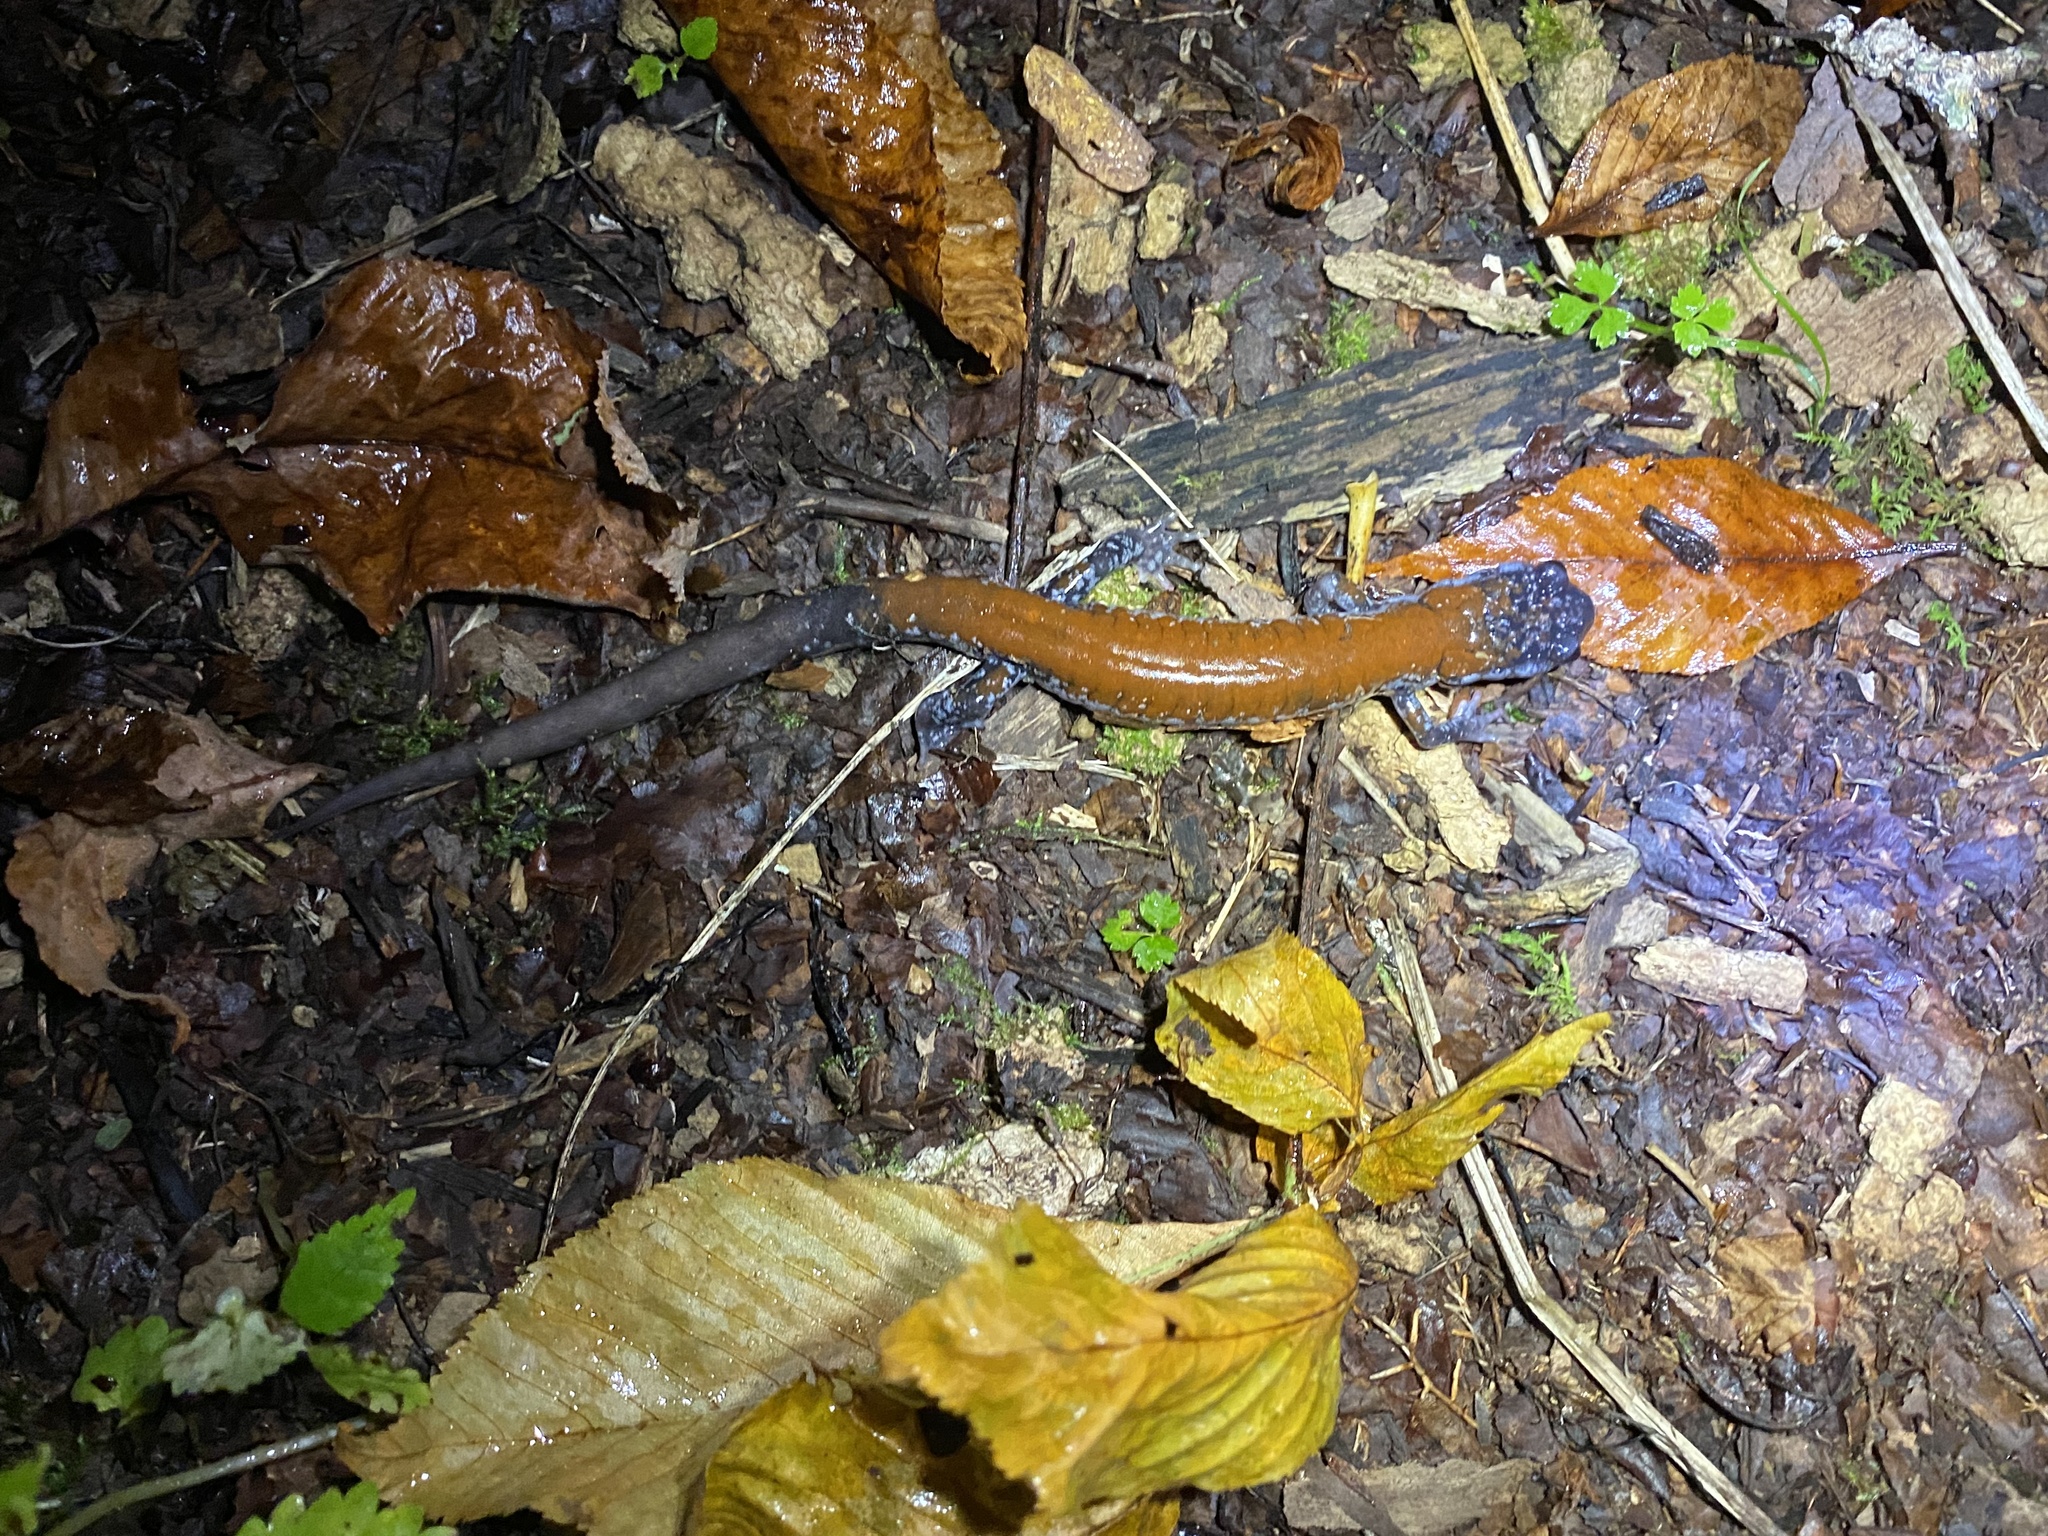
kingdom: Animalia
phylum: Chordata
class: Amphibia
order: Caudata
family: Plethodontidae
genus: Plethodon
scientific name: Plethodon yonahlossee
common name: Yonahlossee salamander
